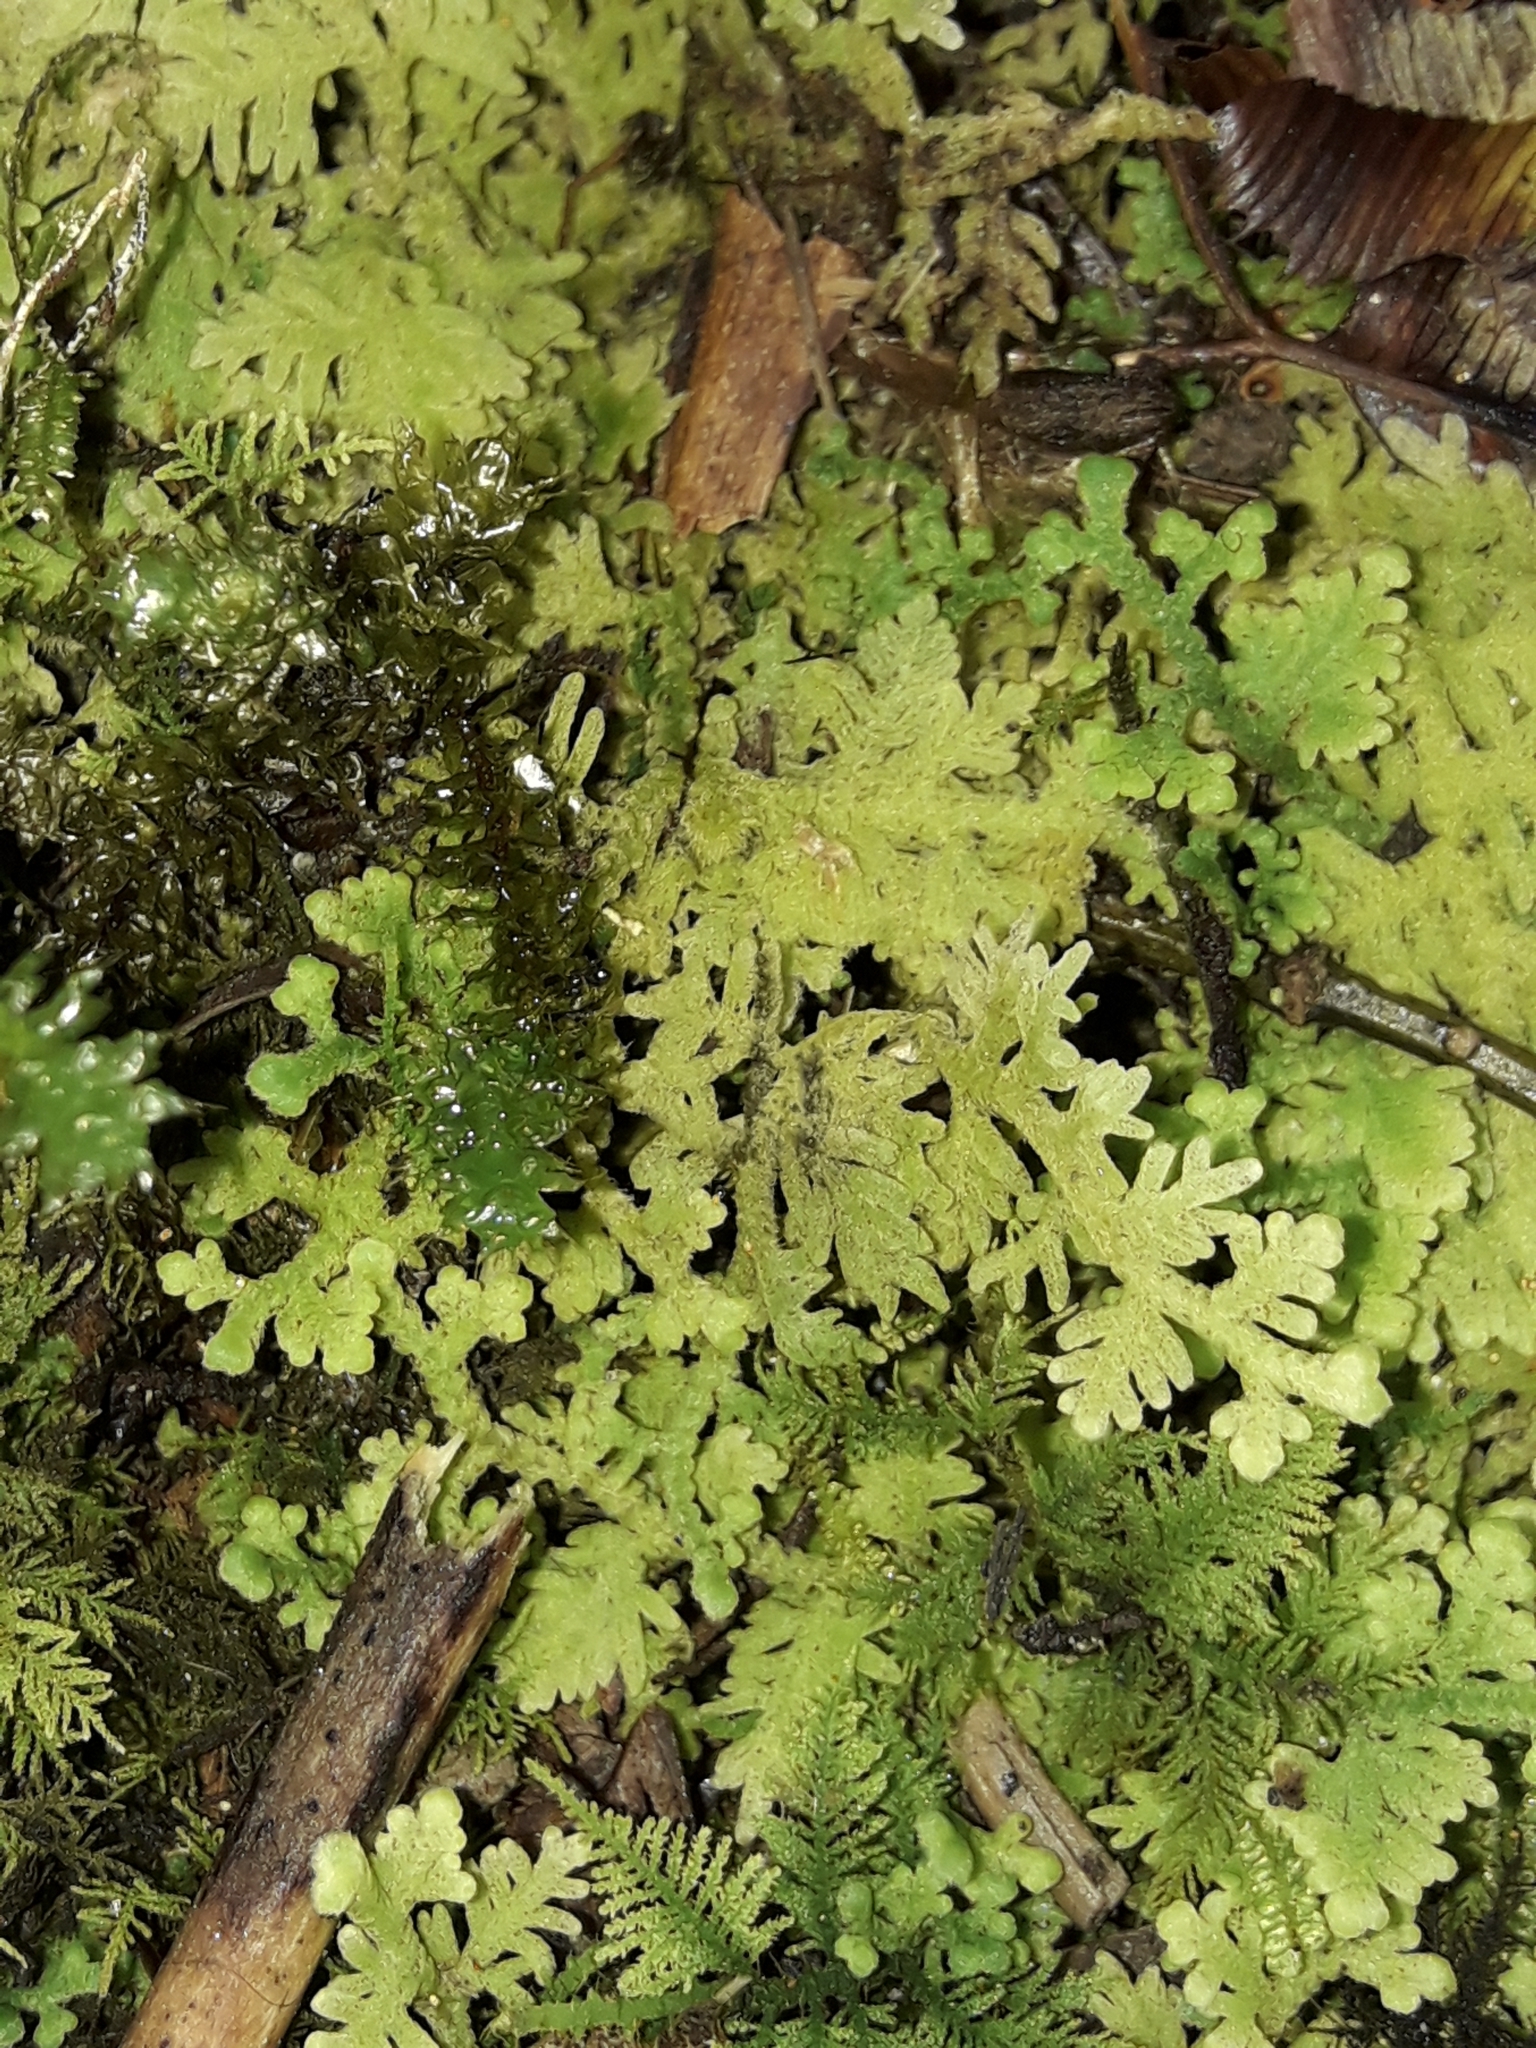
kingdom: Plantae
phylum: Marchantiophyta
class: Jungermanniopsida
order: Jungermanniales
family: Trichocoleaceae
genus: Trichocolea
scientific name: Trichocolea mollissima
